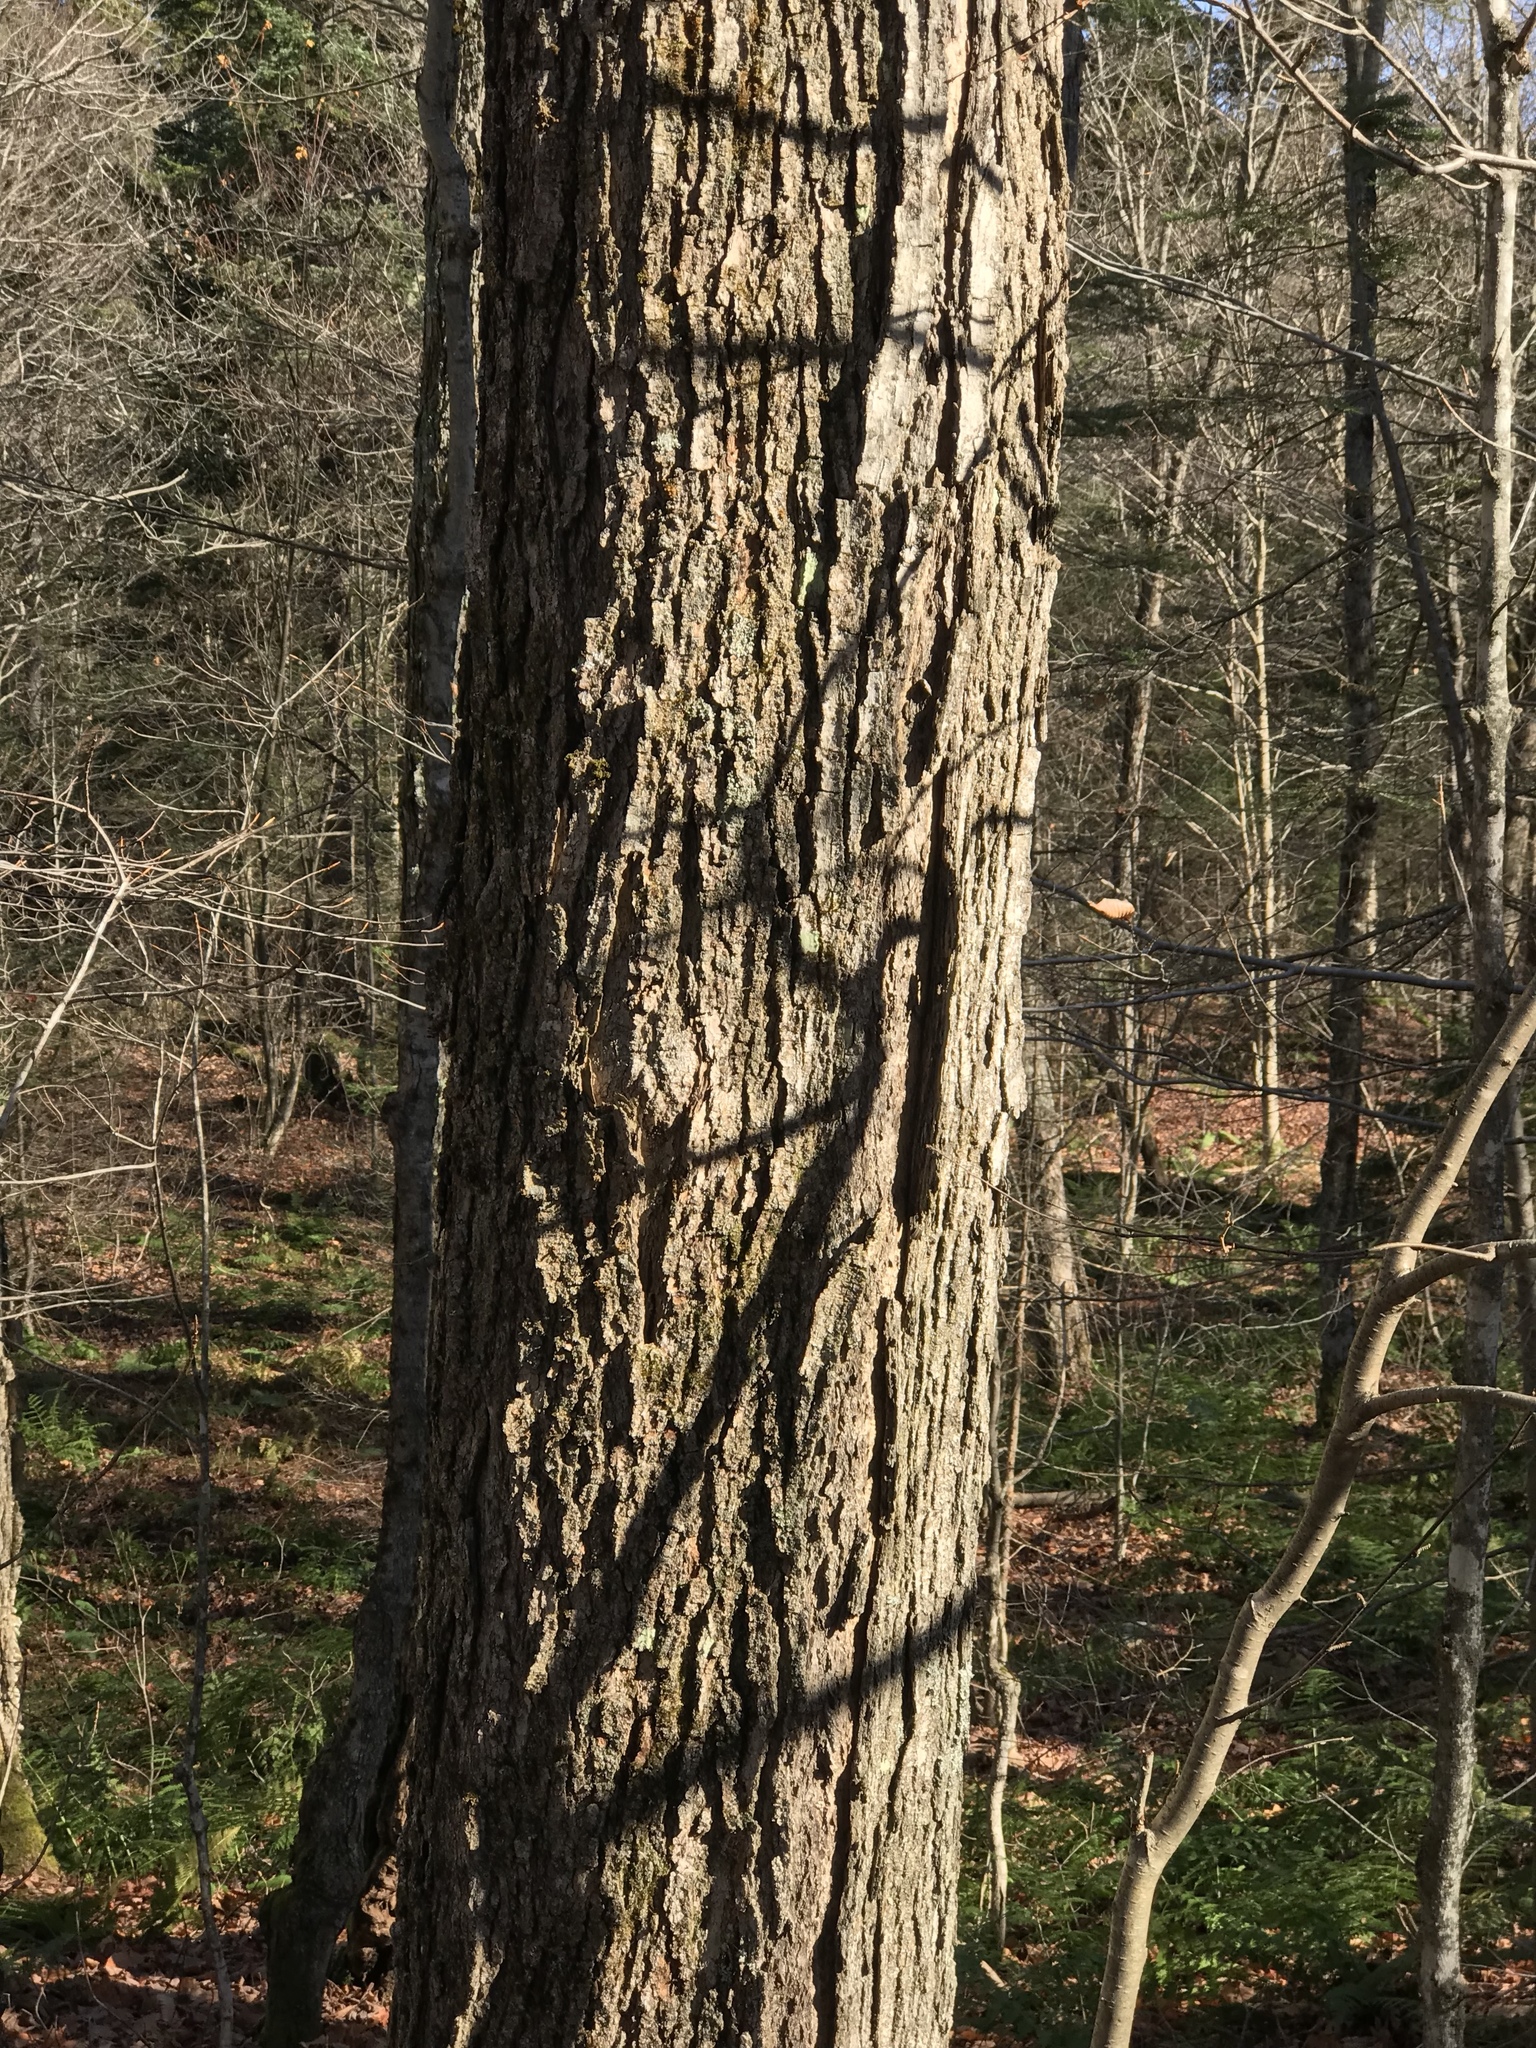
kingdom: Plantae
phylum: Tracheophyta
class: Magnoliopsida
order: Sapindales
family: Sapindaceae
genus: Acer
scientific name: Acer saccharum
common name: Sugar maple
